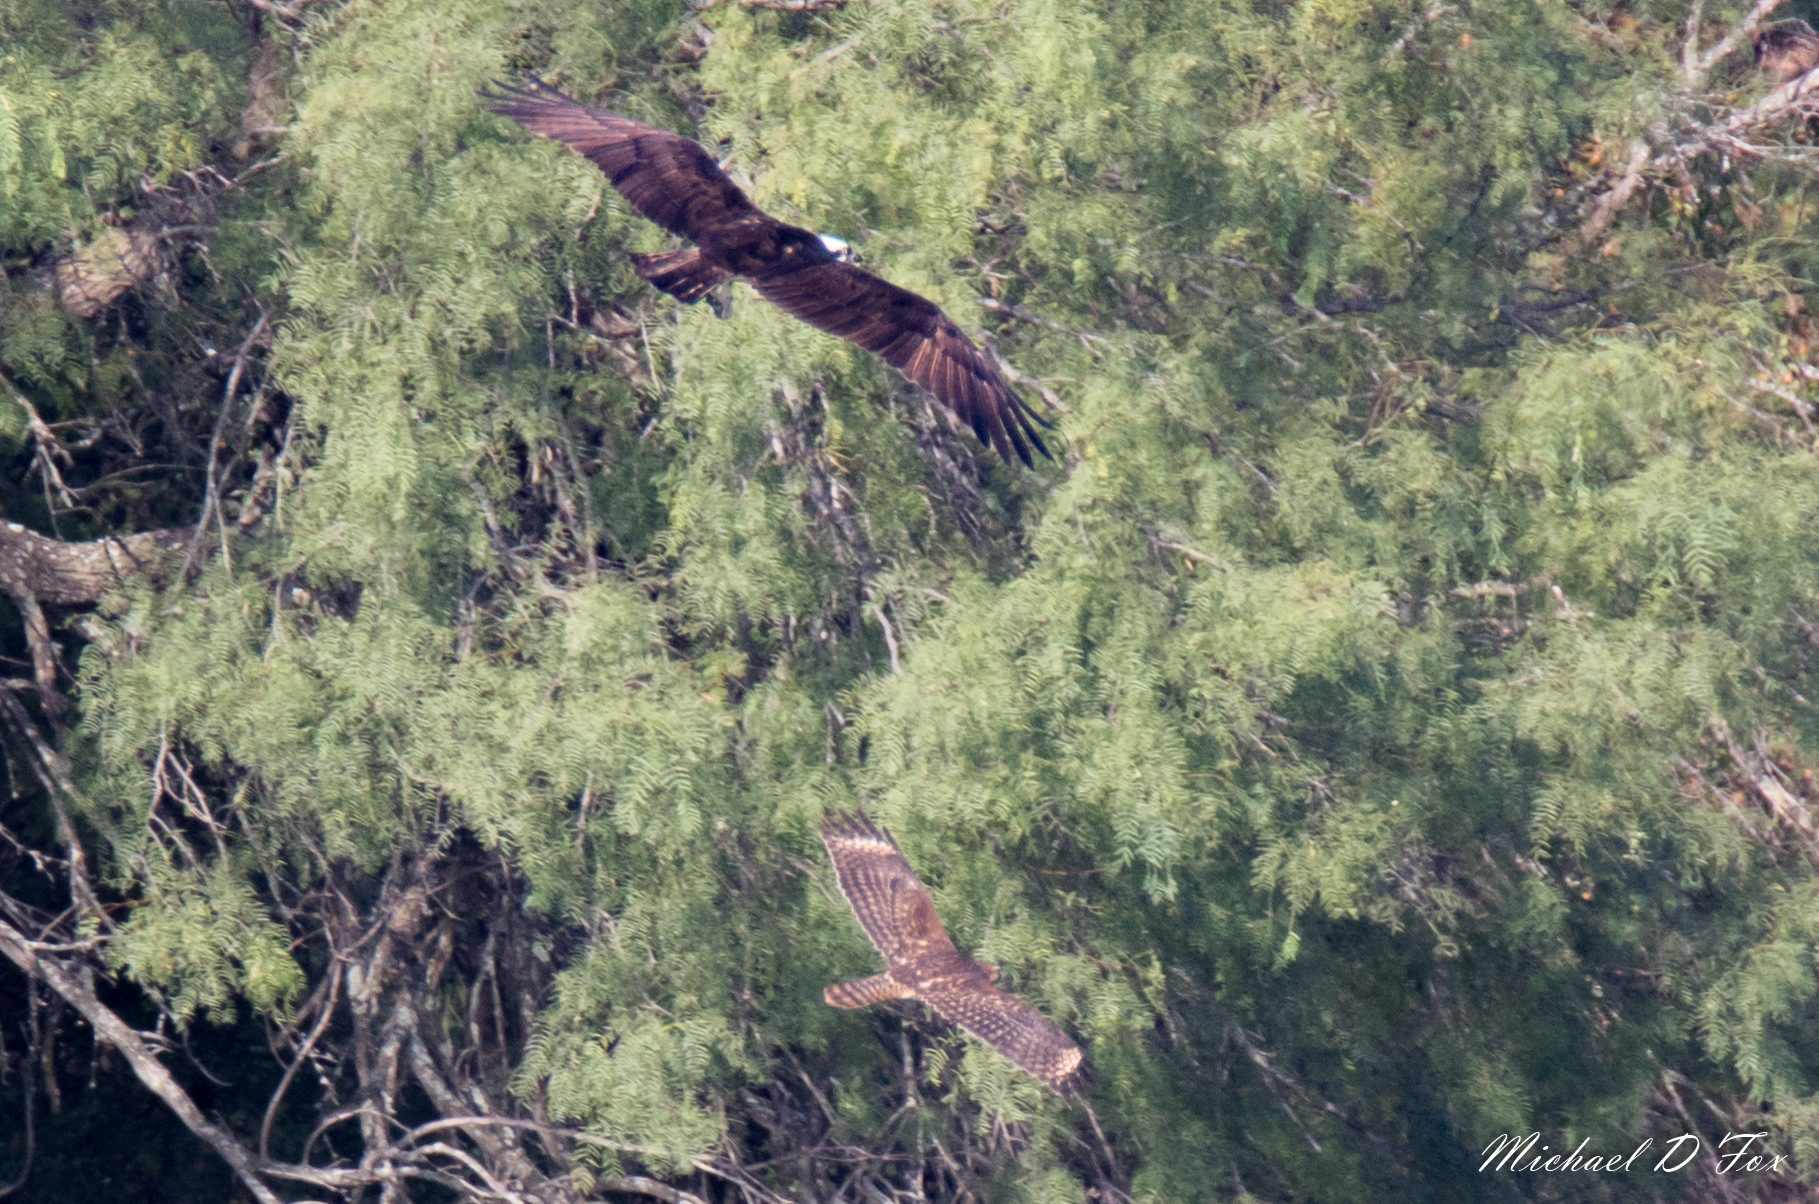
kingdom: Animalia
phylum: Chordata
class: Aves
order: Accipitriformes
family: Accipitridae
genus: Buteo
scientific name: Buteo lineatus
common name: Red-shouldered hawk
